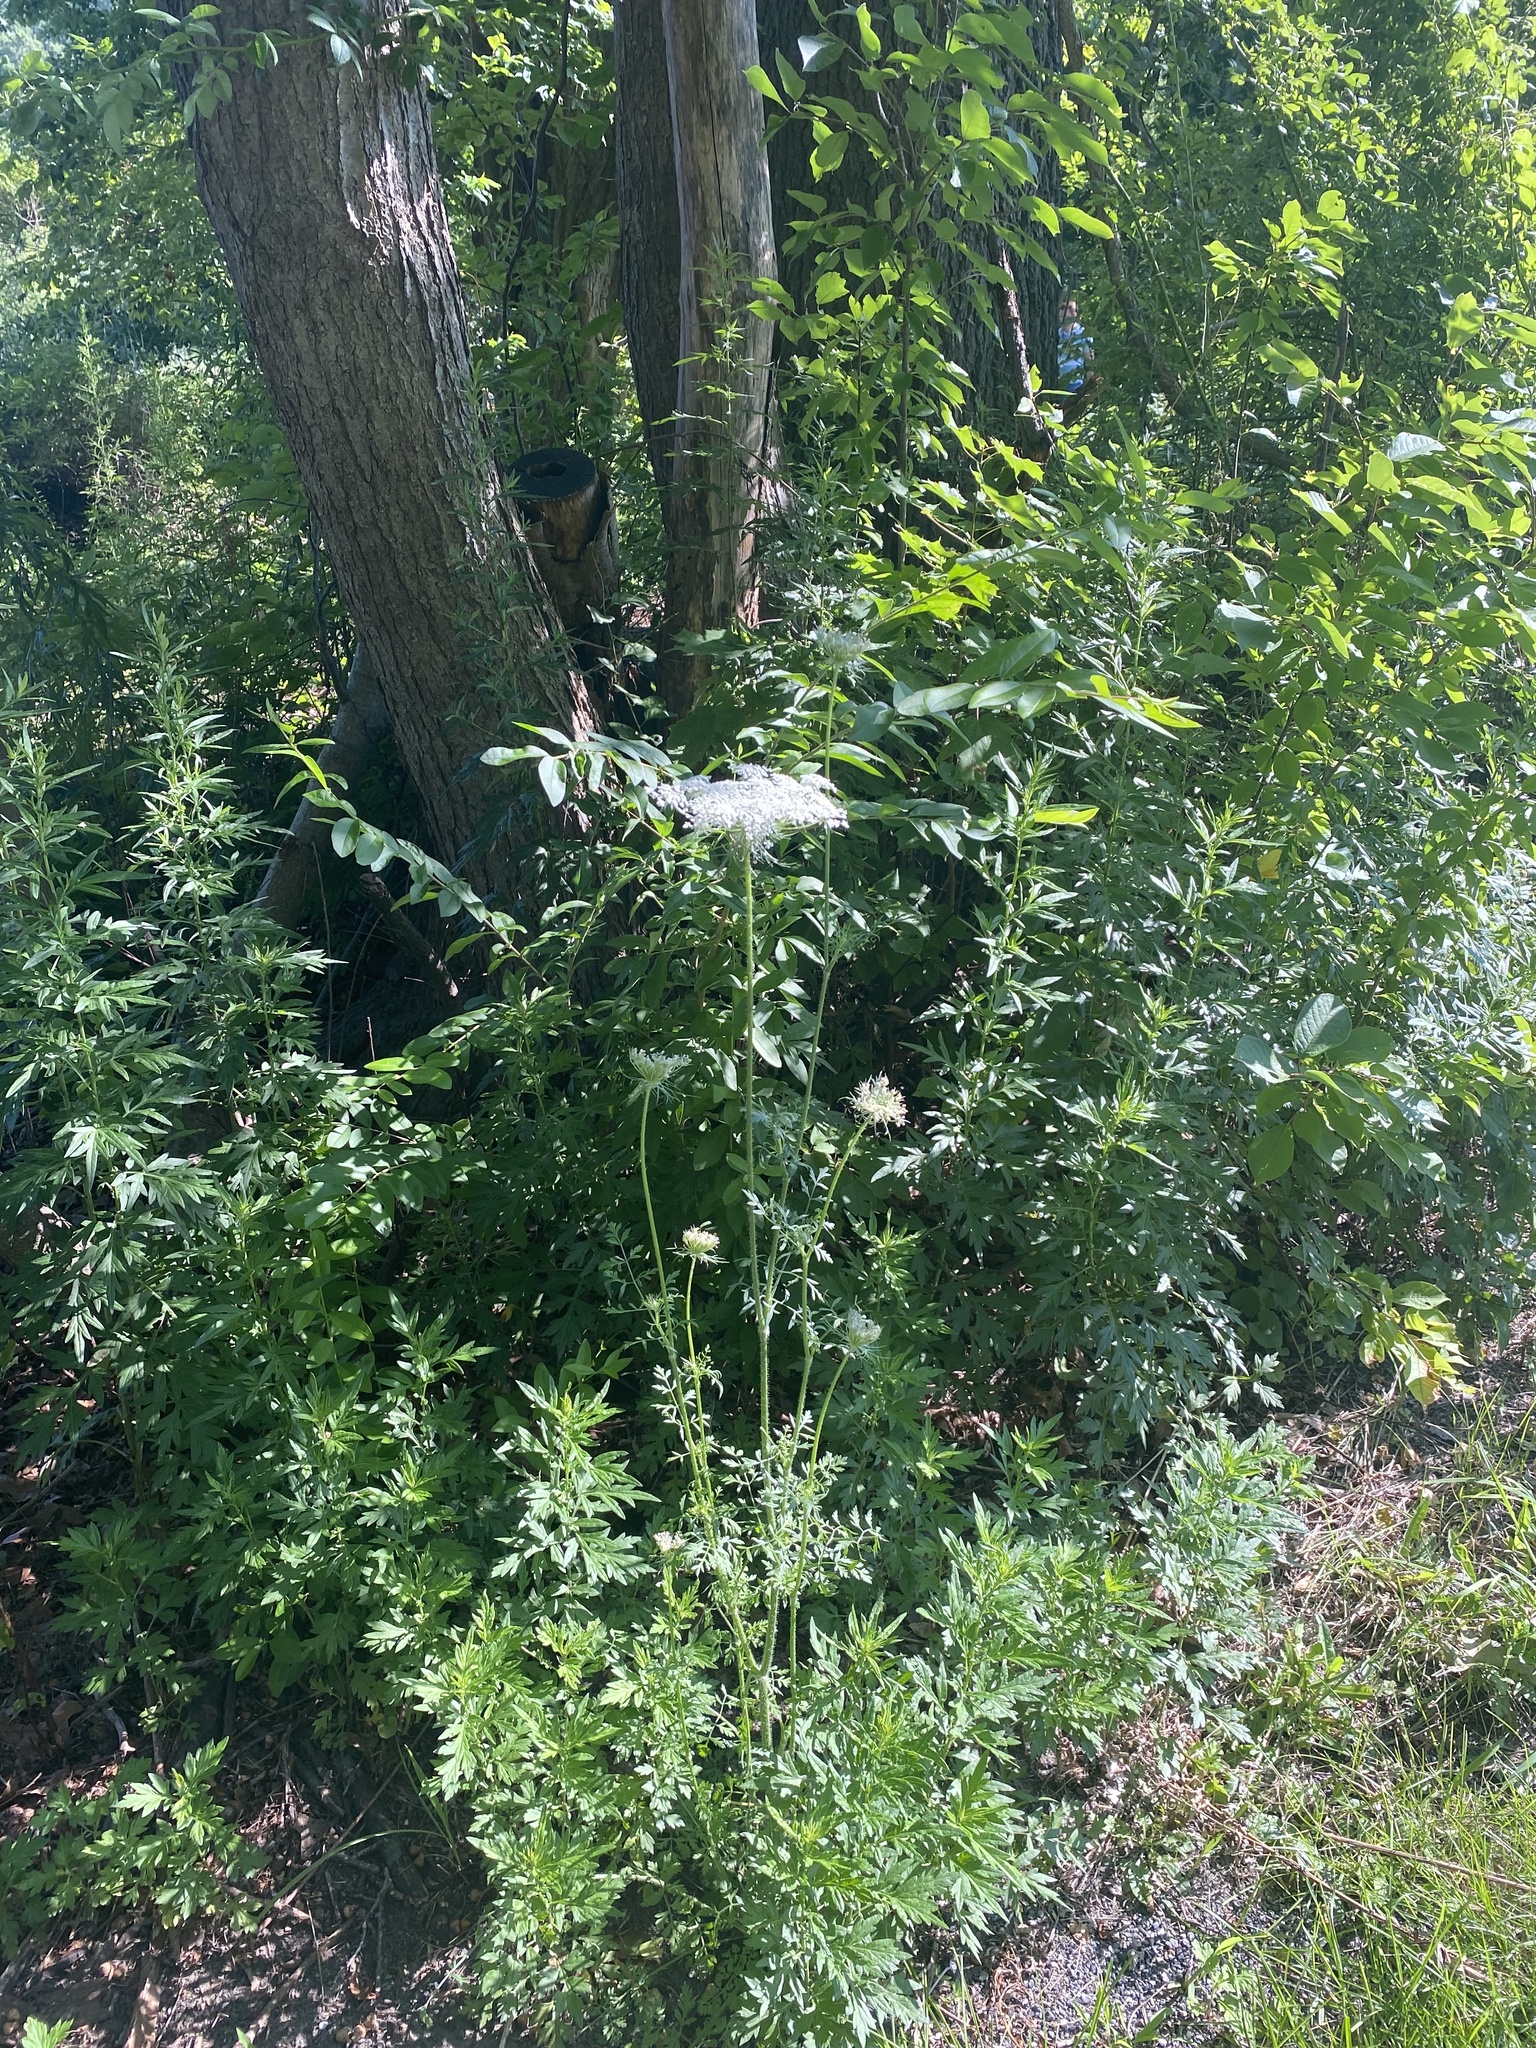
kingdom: Plantae
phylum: Tracheophyta
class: Magnoliopsida
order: Apiales
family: Apiaceae
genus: Daucus
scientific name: Daucus carota
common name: Wild carrot
